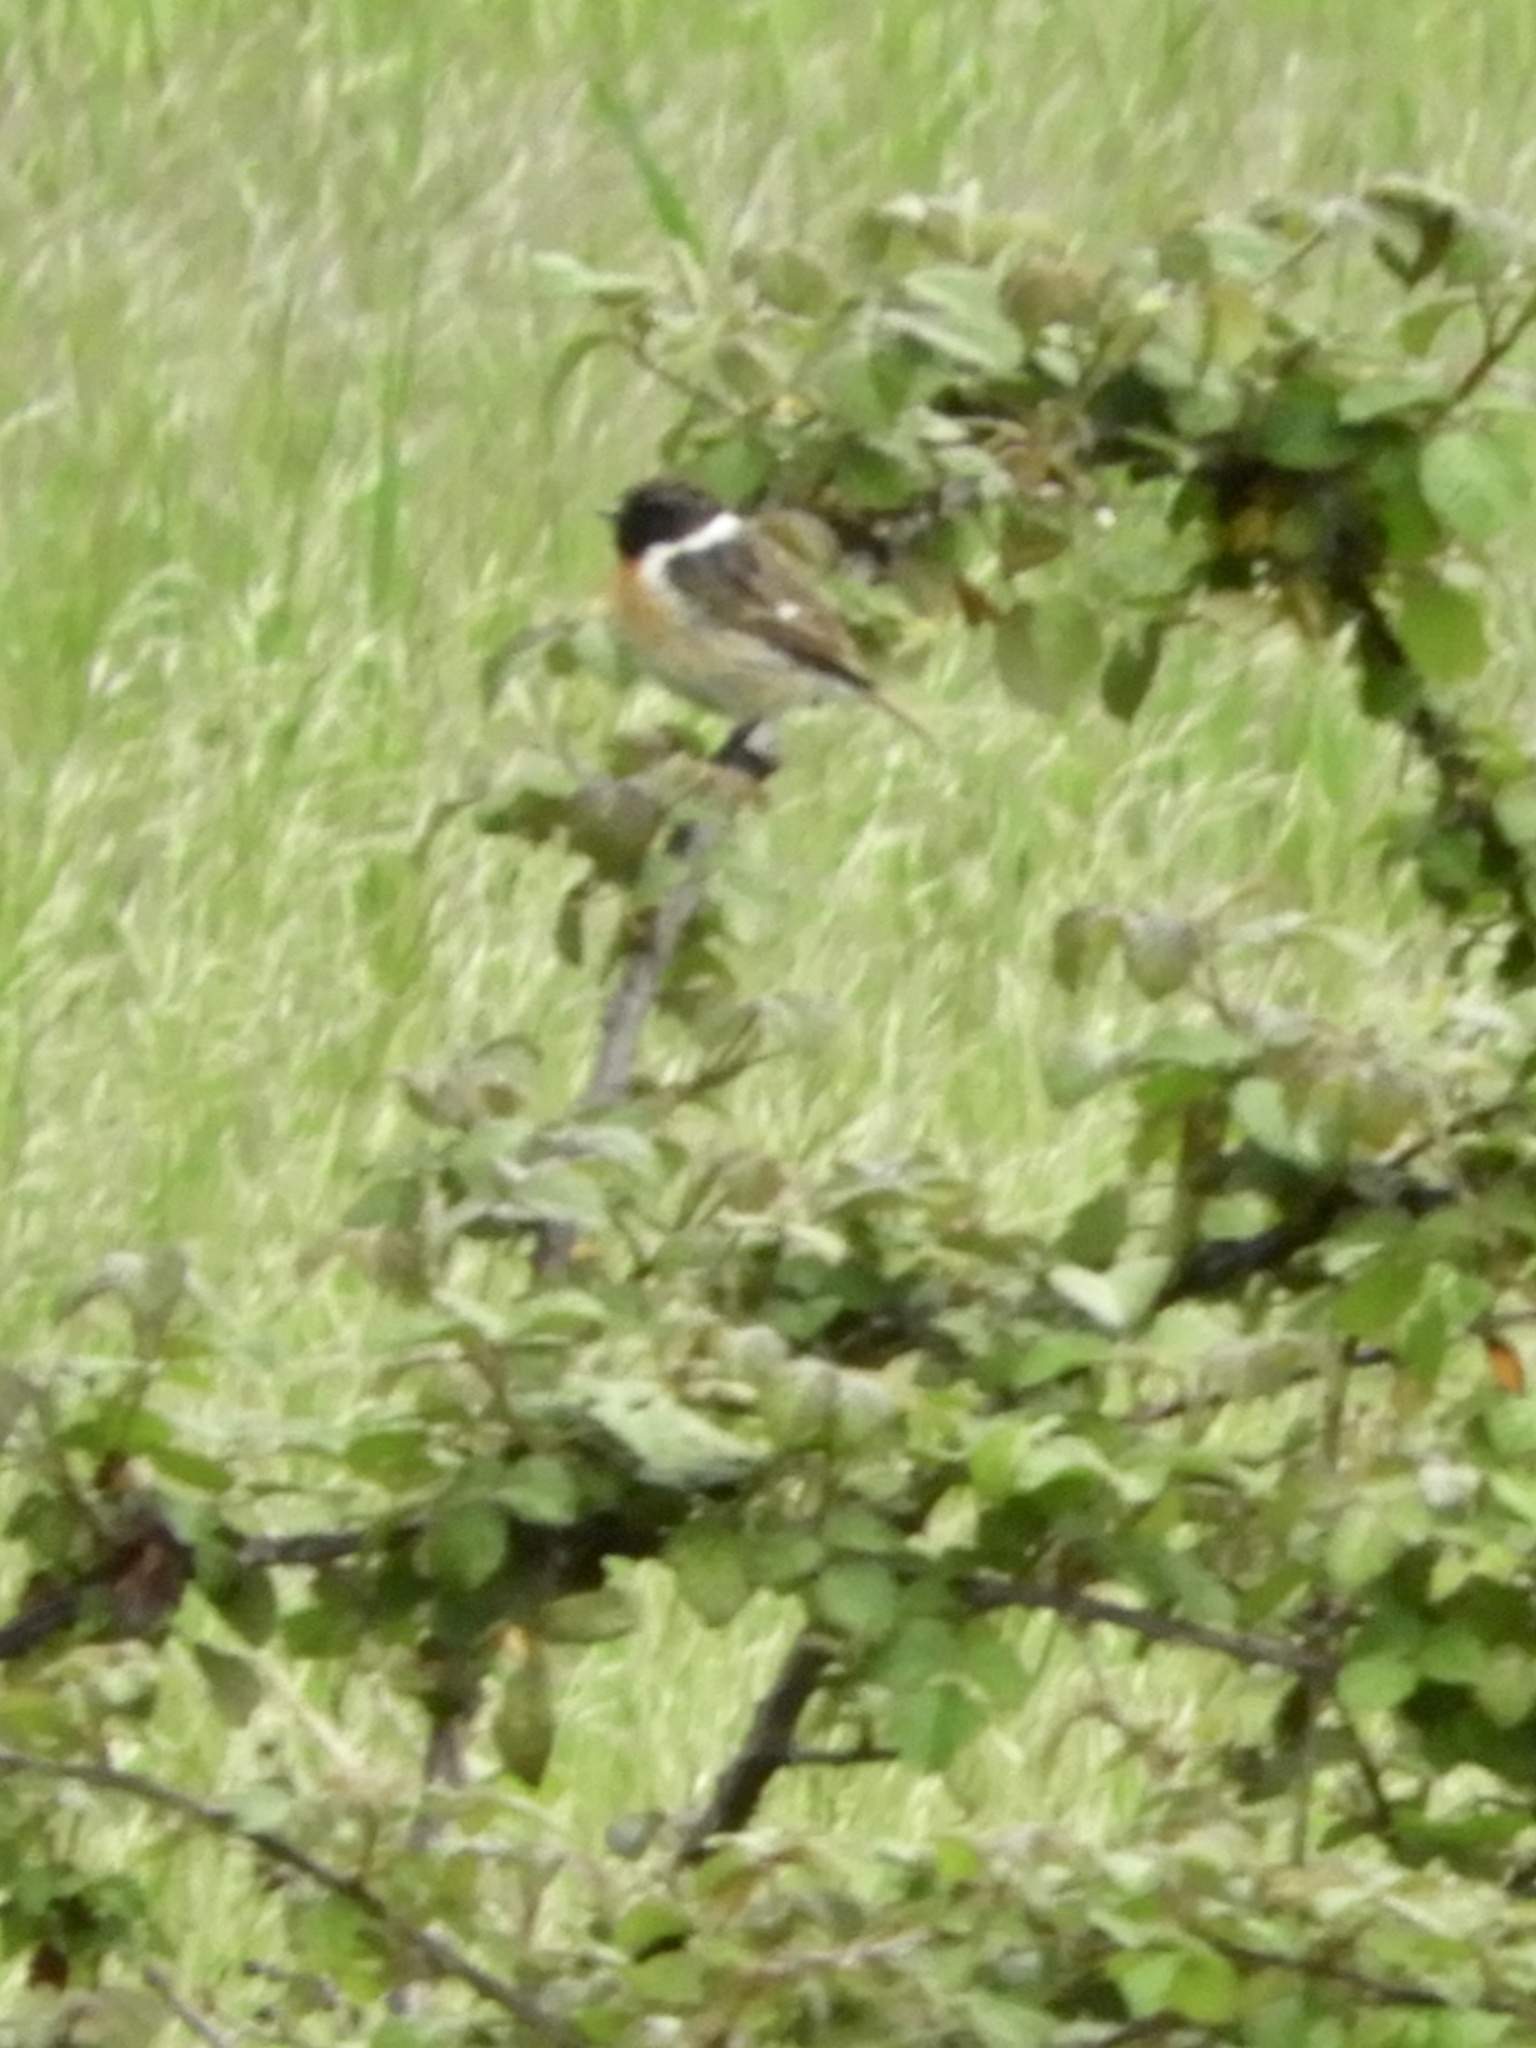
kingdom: Animalia
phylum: Chordata
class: Aves
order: Passeriformes
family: Muscicapidae
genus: Saxicola
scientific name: Saxicola rubicola
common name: European stonechat
